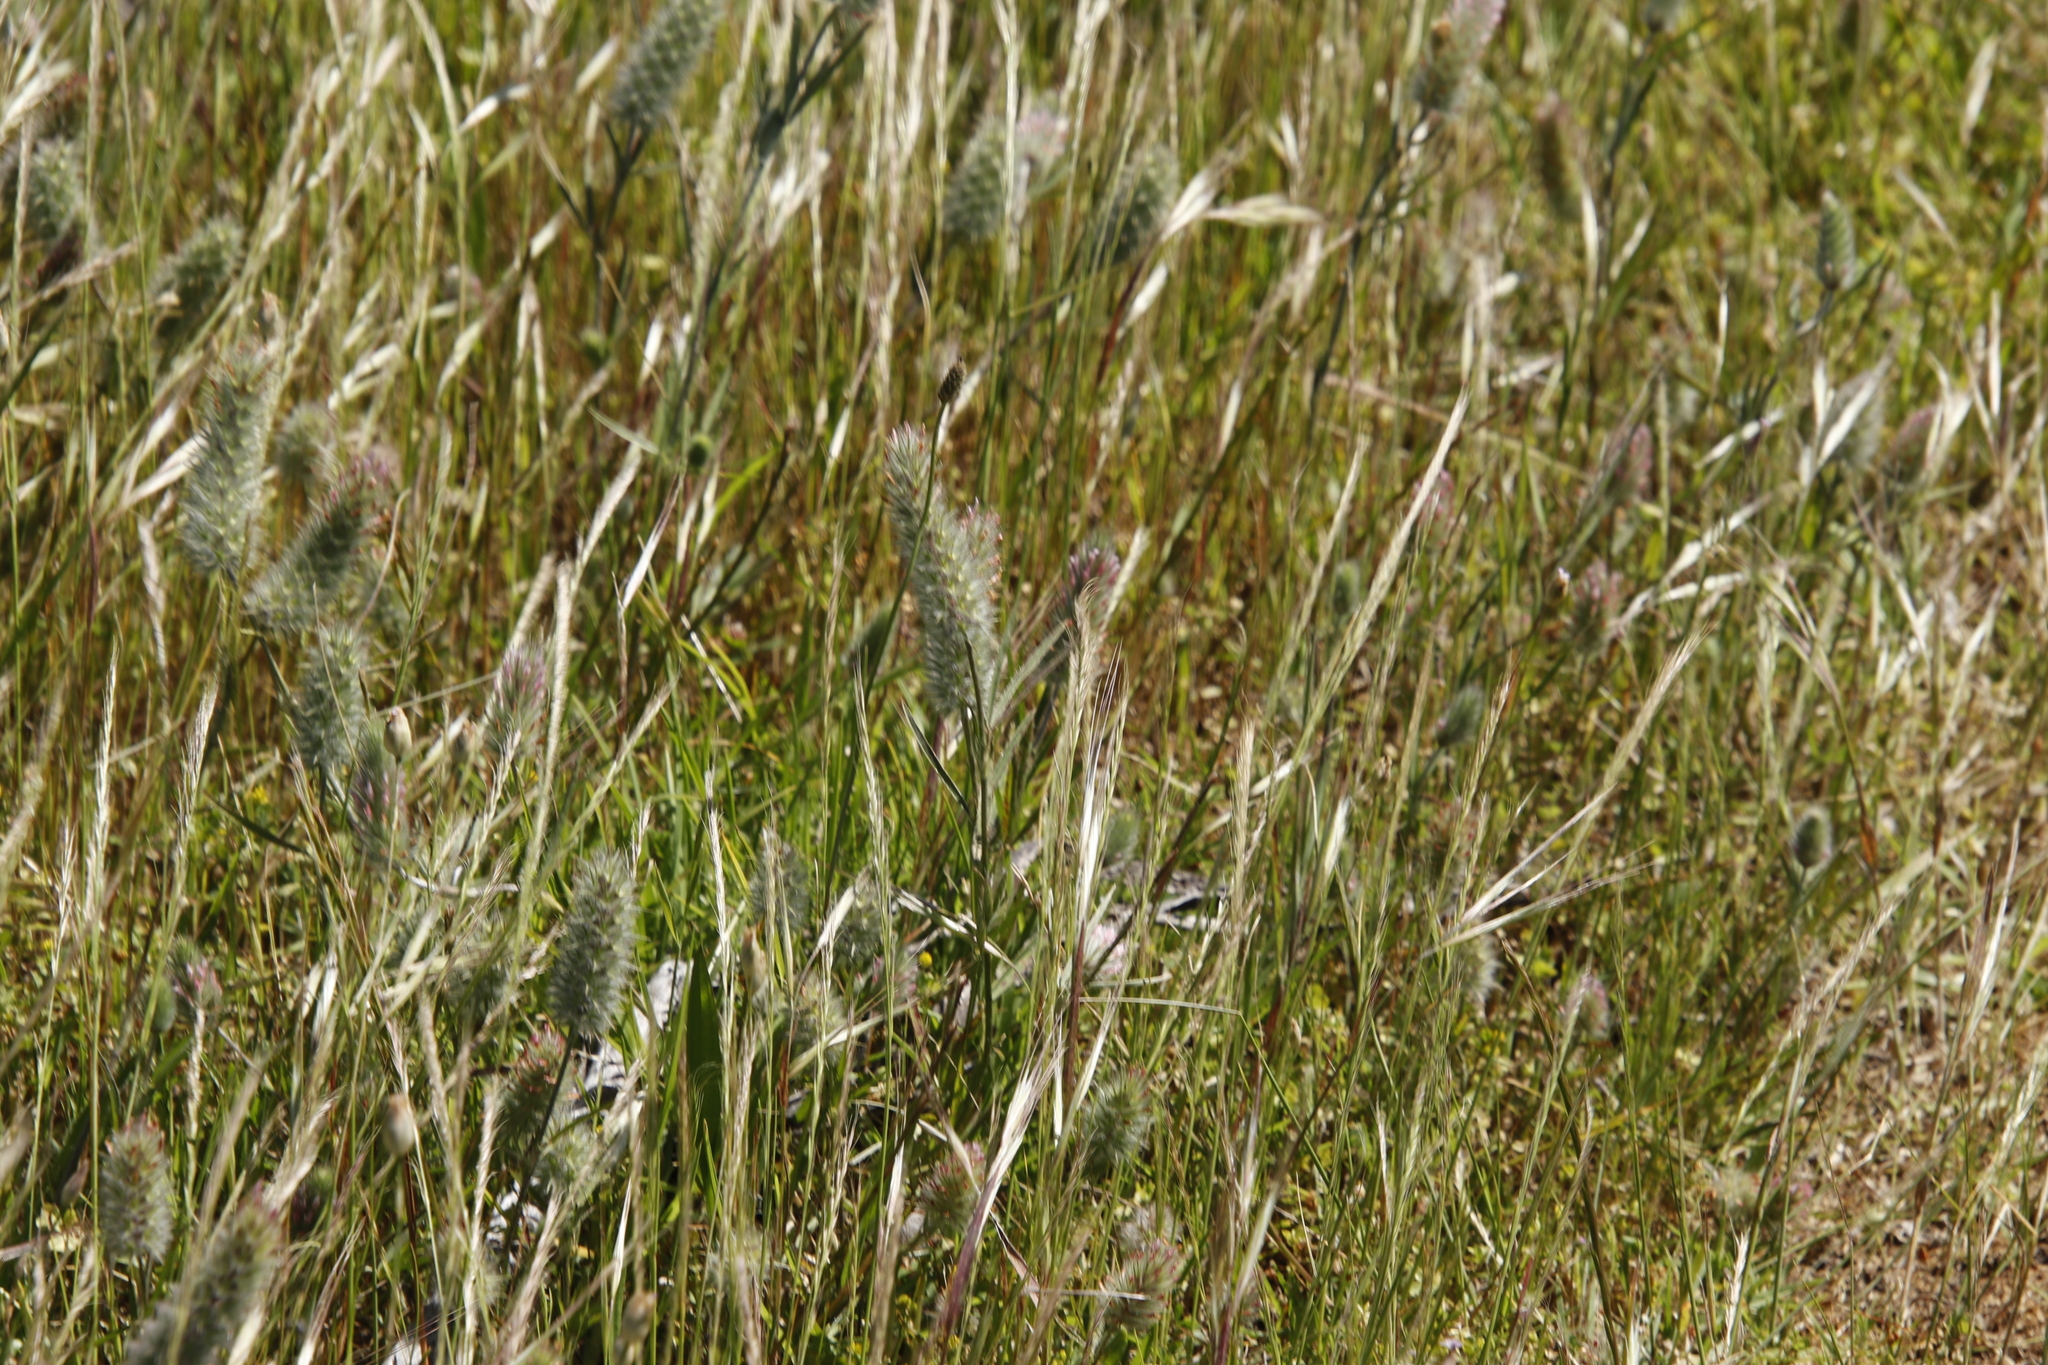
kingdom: Plantae
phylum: Tracheophyta
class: Magnoliopsida
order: Fabales
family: Fabaceae
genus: Trifolium
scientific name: Trifolium angustifolium
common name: Narrow clover
